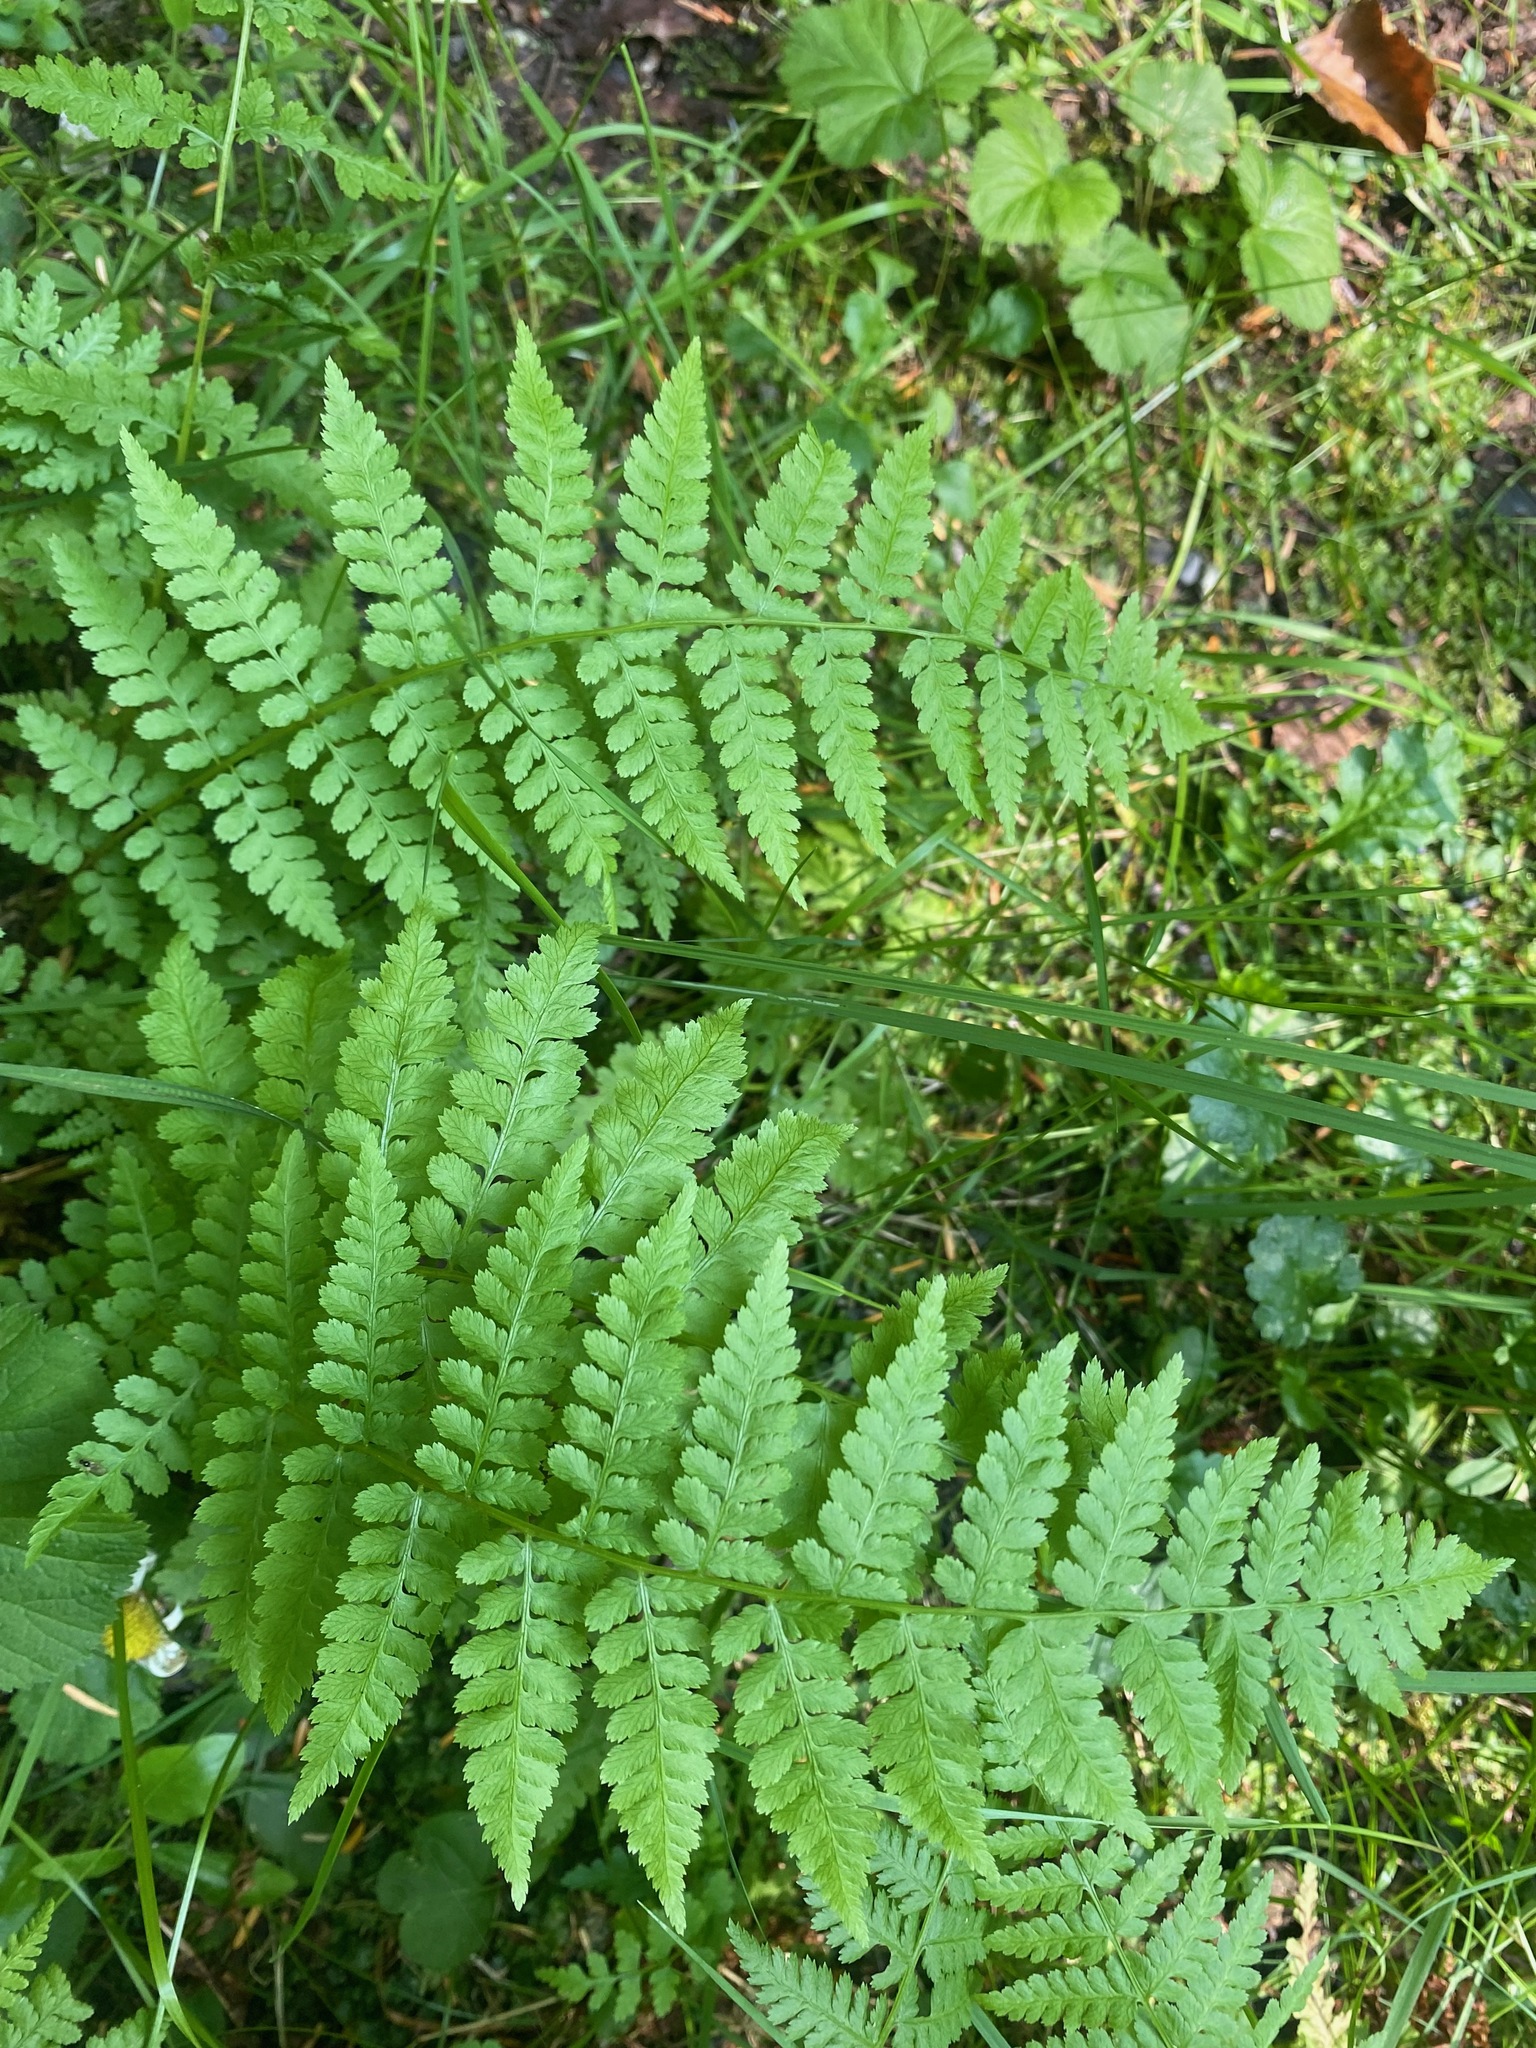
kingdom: Plantae
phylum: Tracheophyta
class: Polypodiopsida
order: Polypodiales
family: Athyriaceae
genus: Athyrium
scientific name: Athyrium filix-femina
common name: Lady fern
